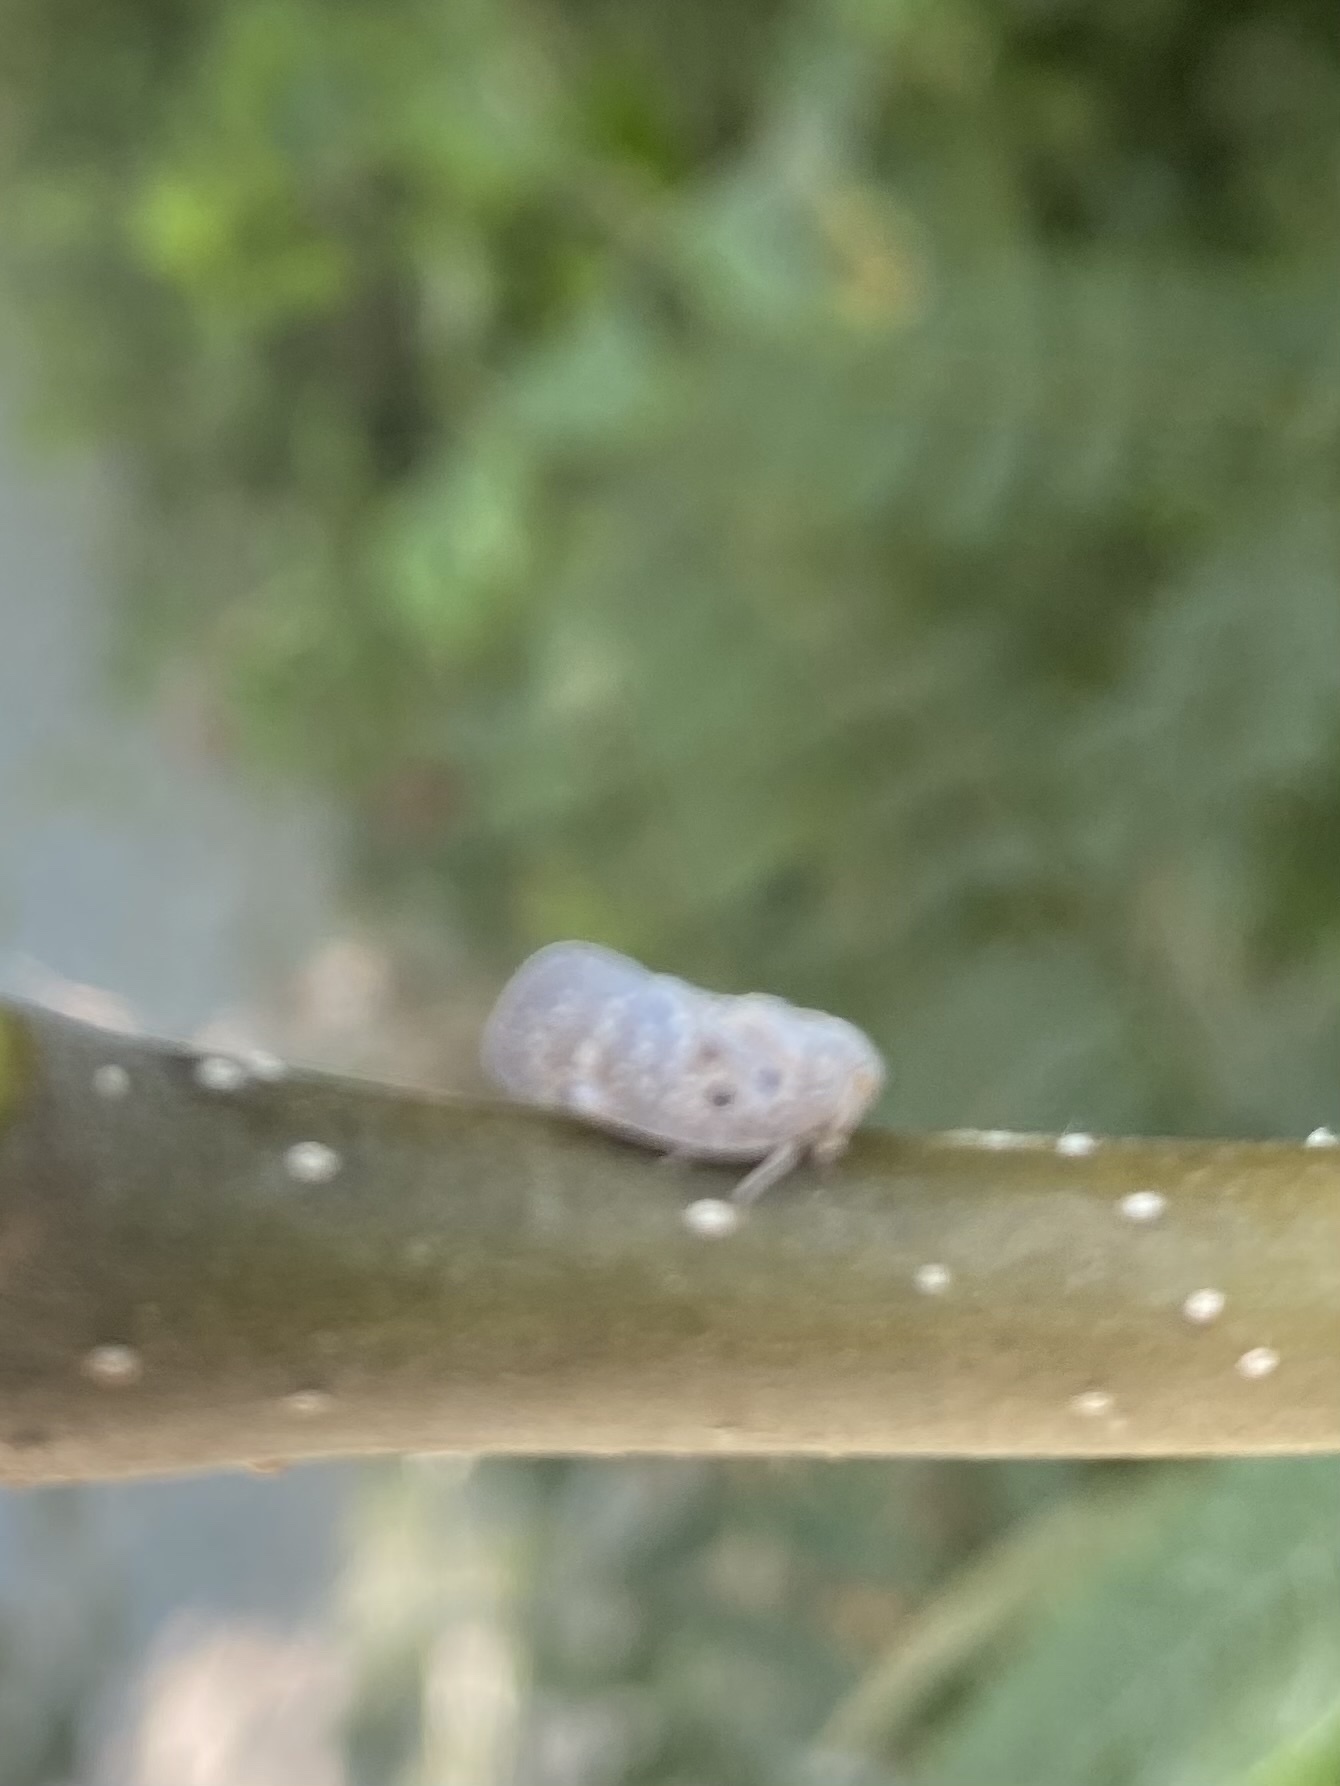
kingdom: Animalia
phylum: Arthropoda
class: Insecta
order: Hemiptera
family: Flatidae
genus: Metcalfa
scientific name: Metcalfa pruinosa
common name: Citrus flatid planthopper
